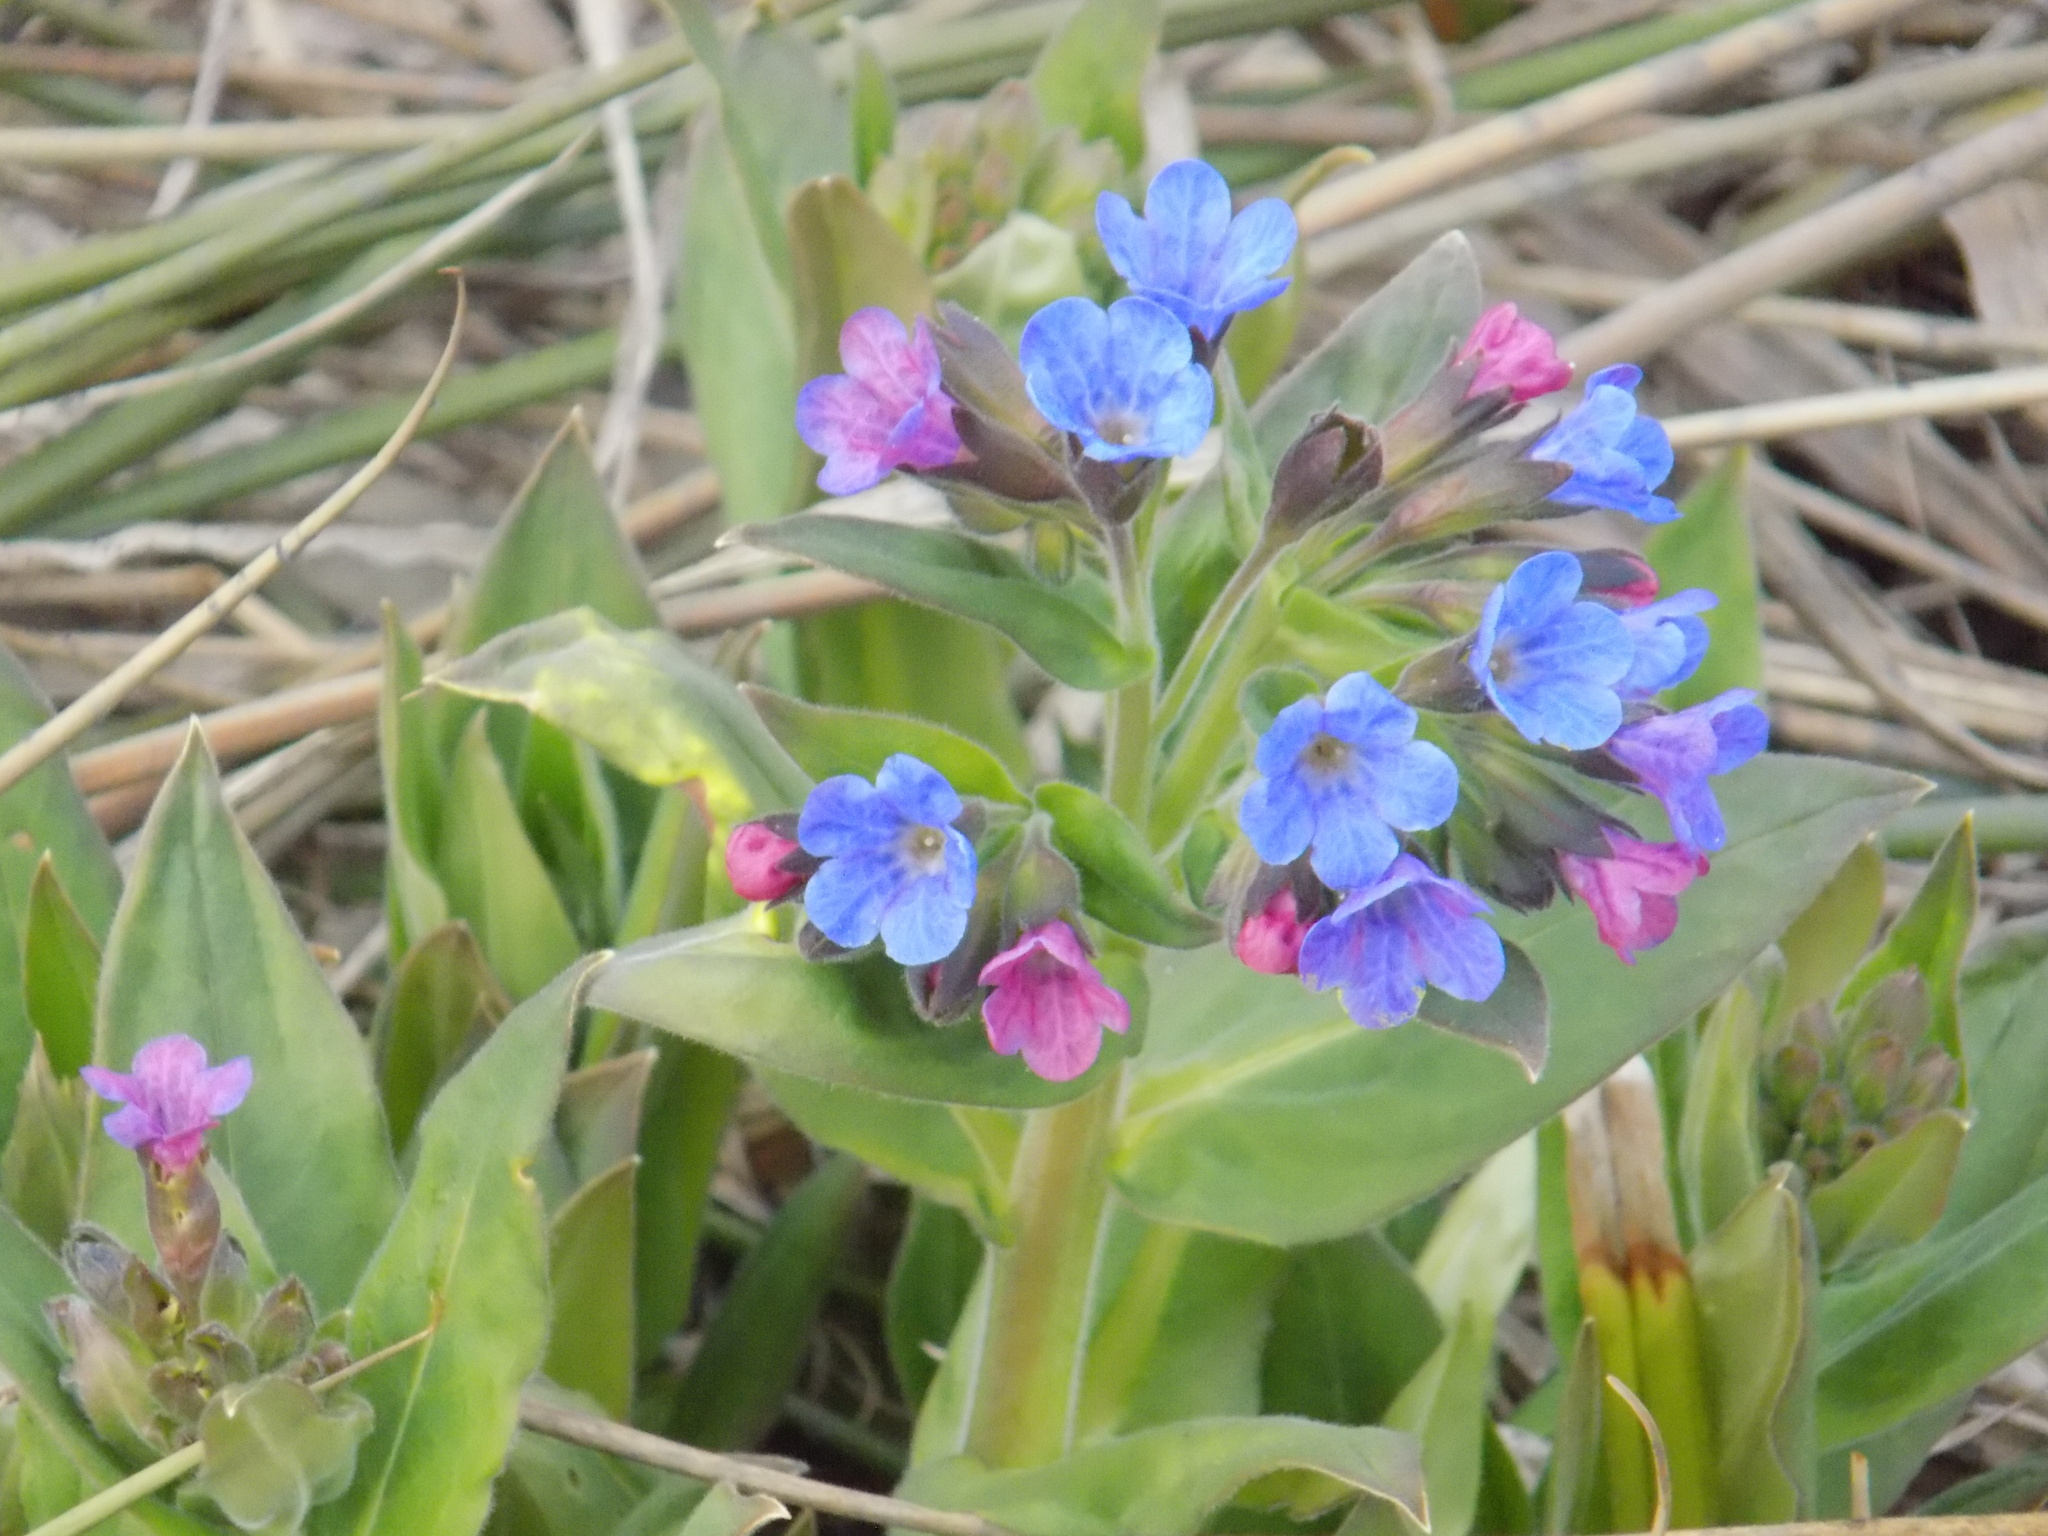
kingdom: Plantae
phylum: Tracheophyta
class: Magnoliopsida
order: Boraginales
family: Boraginaceae
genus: Pulmonaria
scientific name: Pulmonaria mollis
